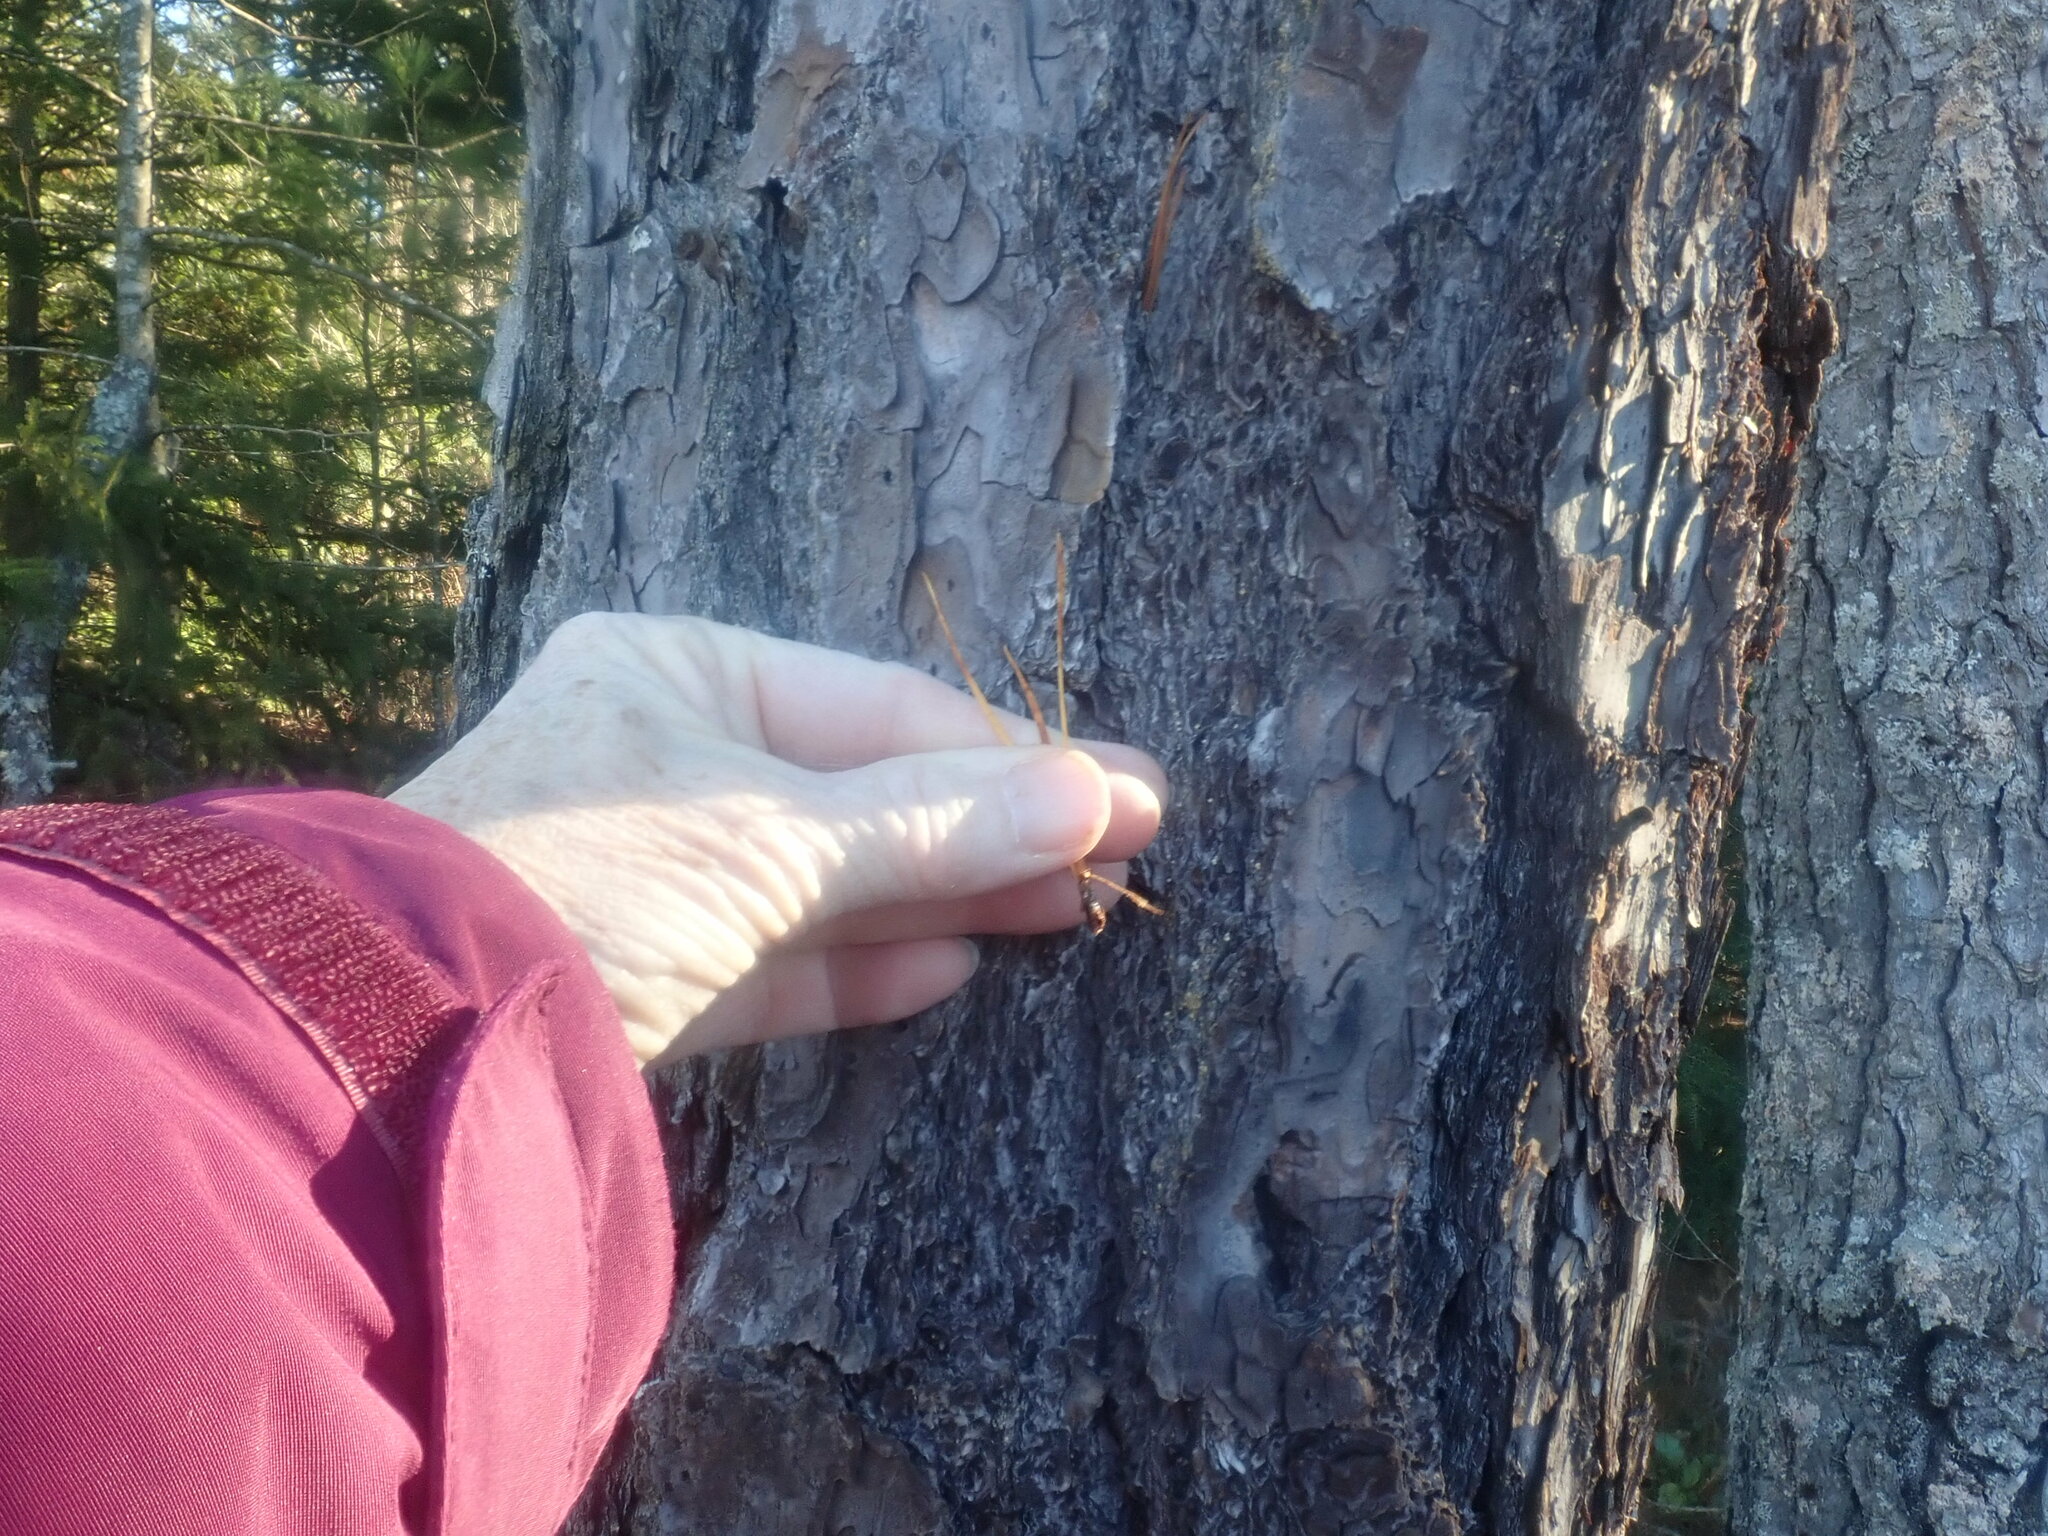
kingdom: Plantae
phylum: Tracheophyta
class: Pinopsida
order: Pinales
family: Pinaceae
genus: Pinus
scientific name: Pinus rigida
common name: Pitch pine
